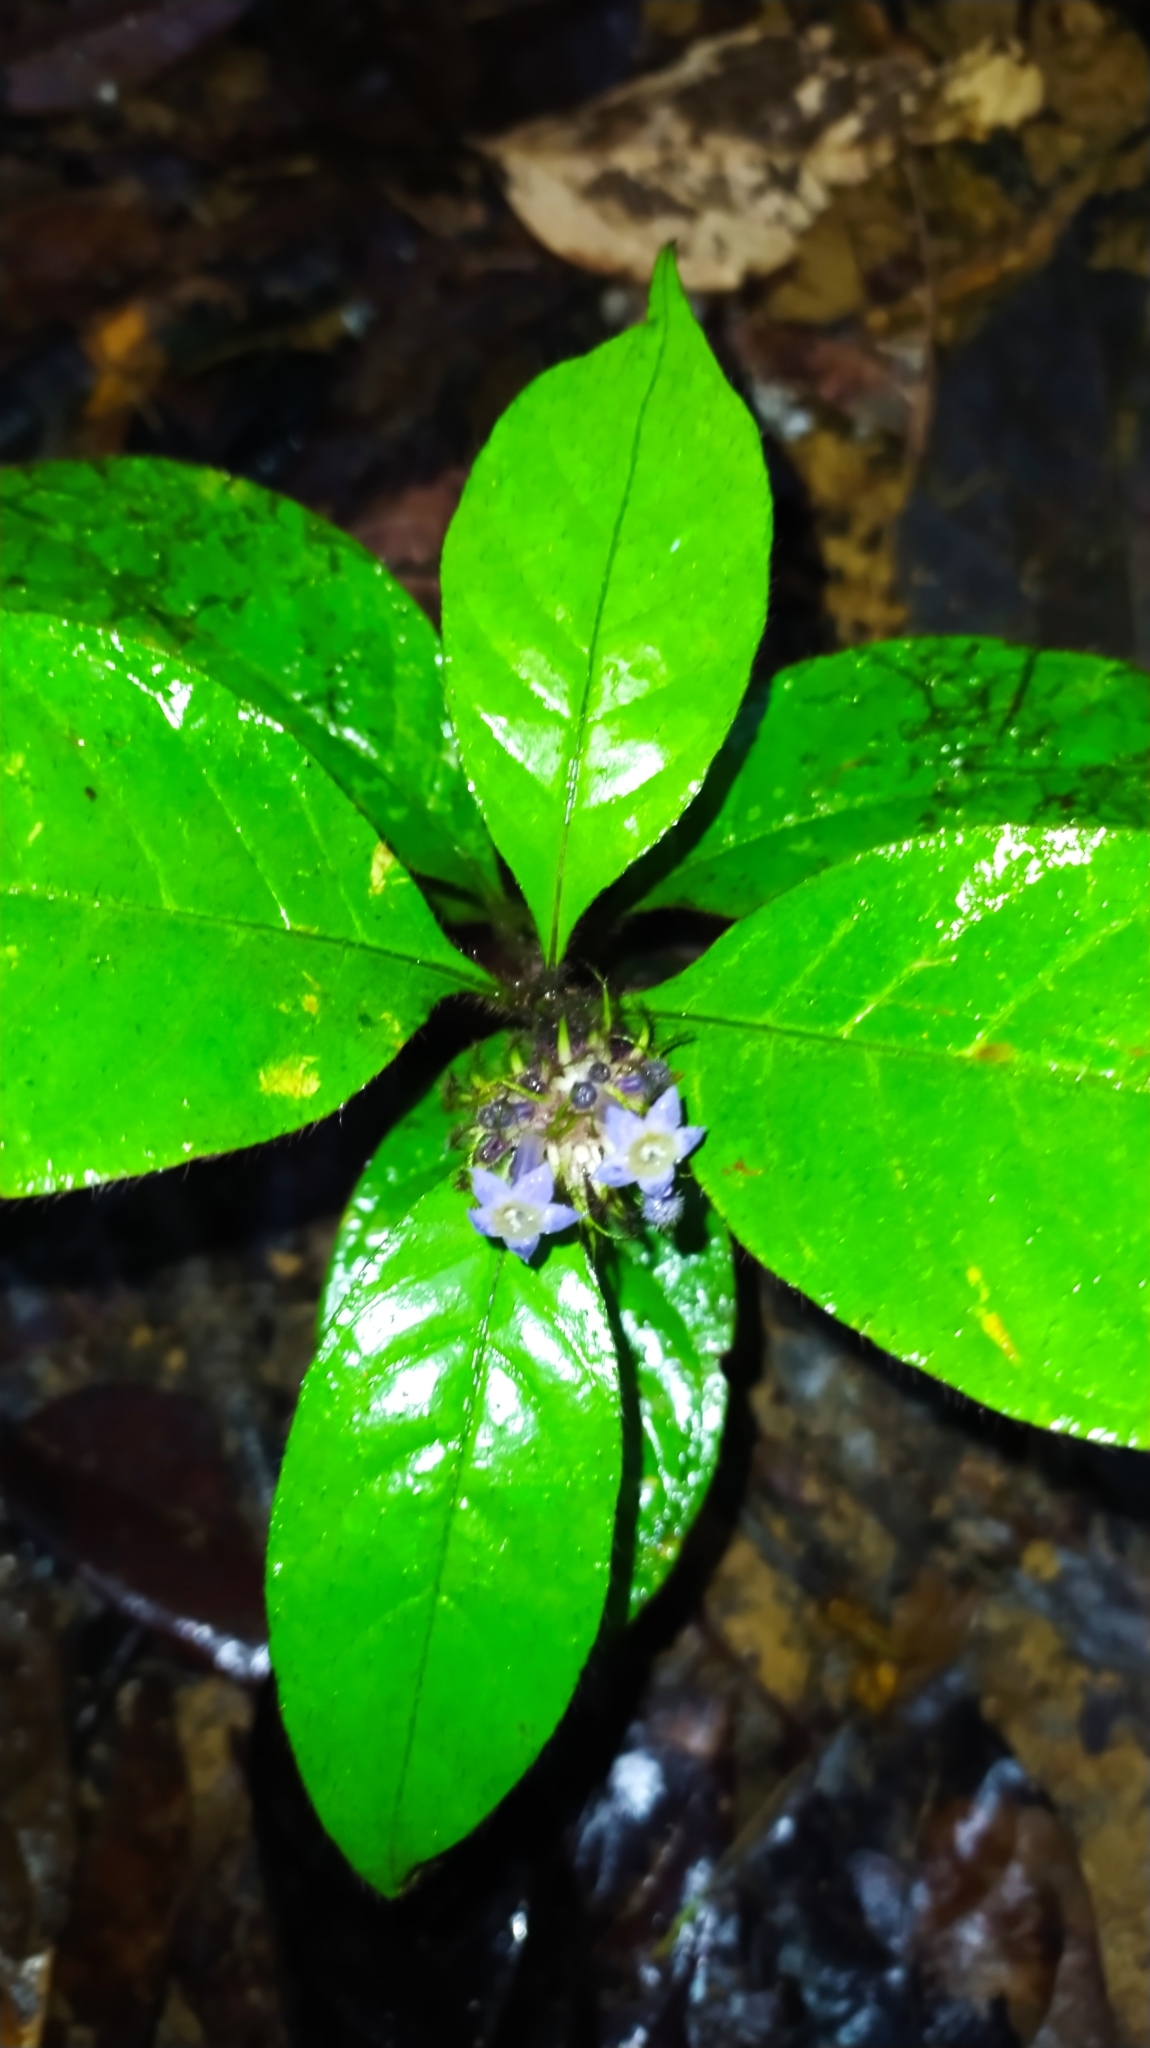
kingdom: Plantae
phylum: Tracheophyta
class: Magnoliopsida
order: Gentianales
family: Rubiaceae
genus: Palicourea
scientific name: Palicourea glabra
